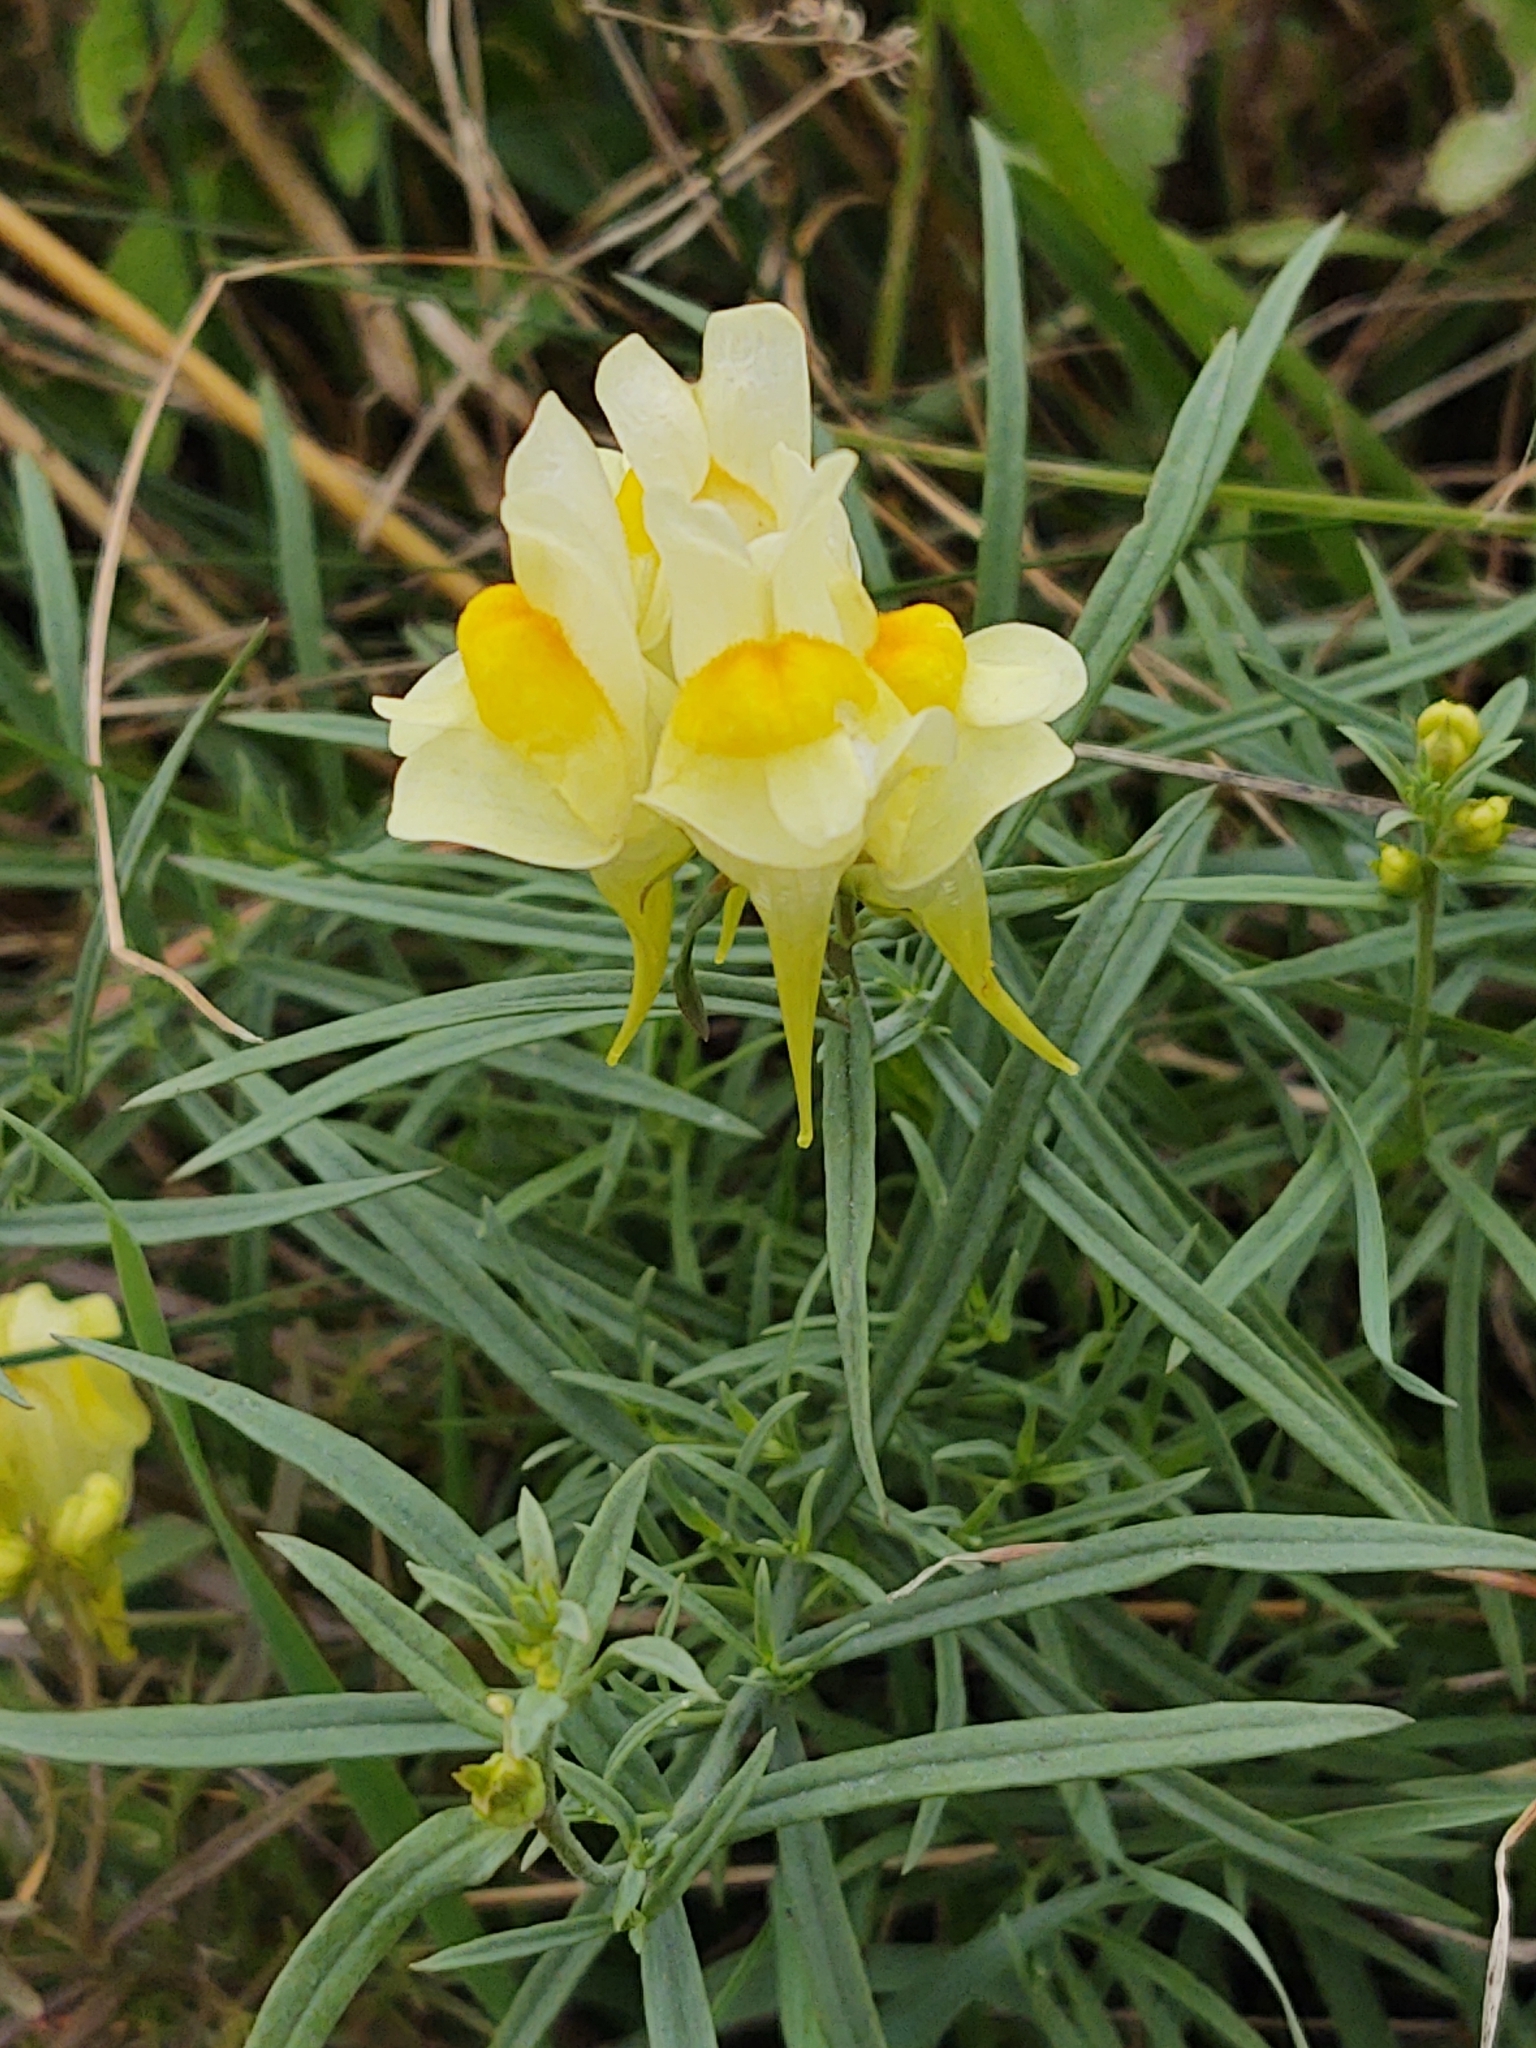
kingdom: Plantae
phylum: Tracheophyta
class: Magnoliopsida
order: Lamiales
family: Plantaginaceae
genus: Linaria
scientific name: Linaria vulgaris
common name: Butter and eggs
